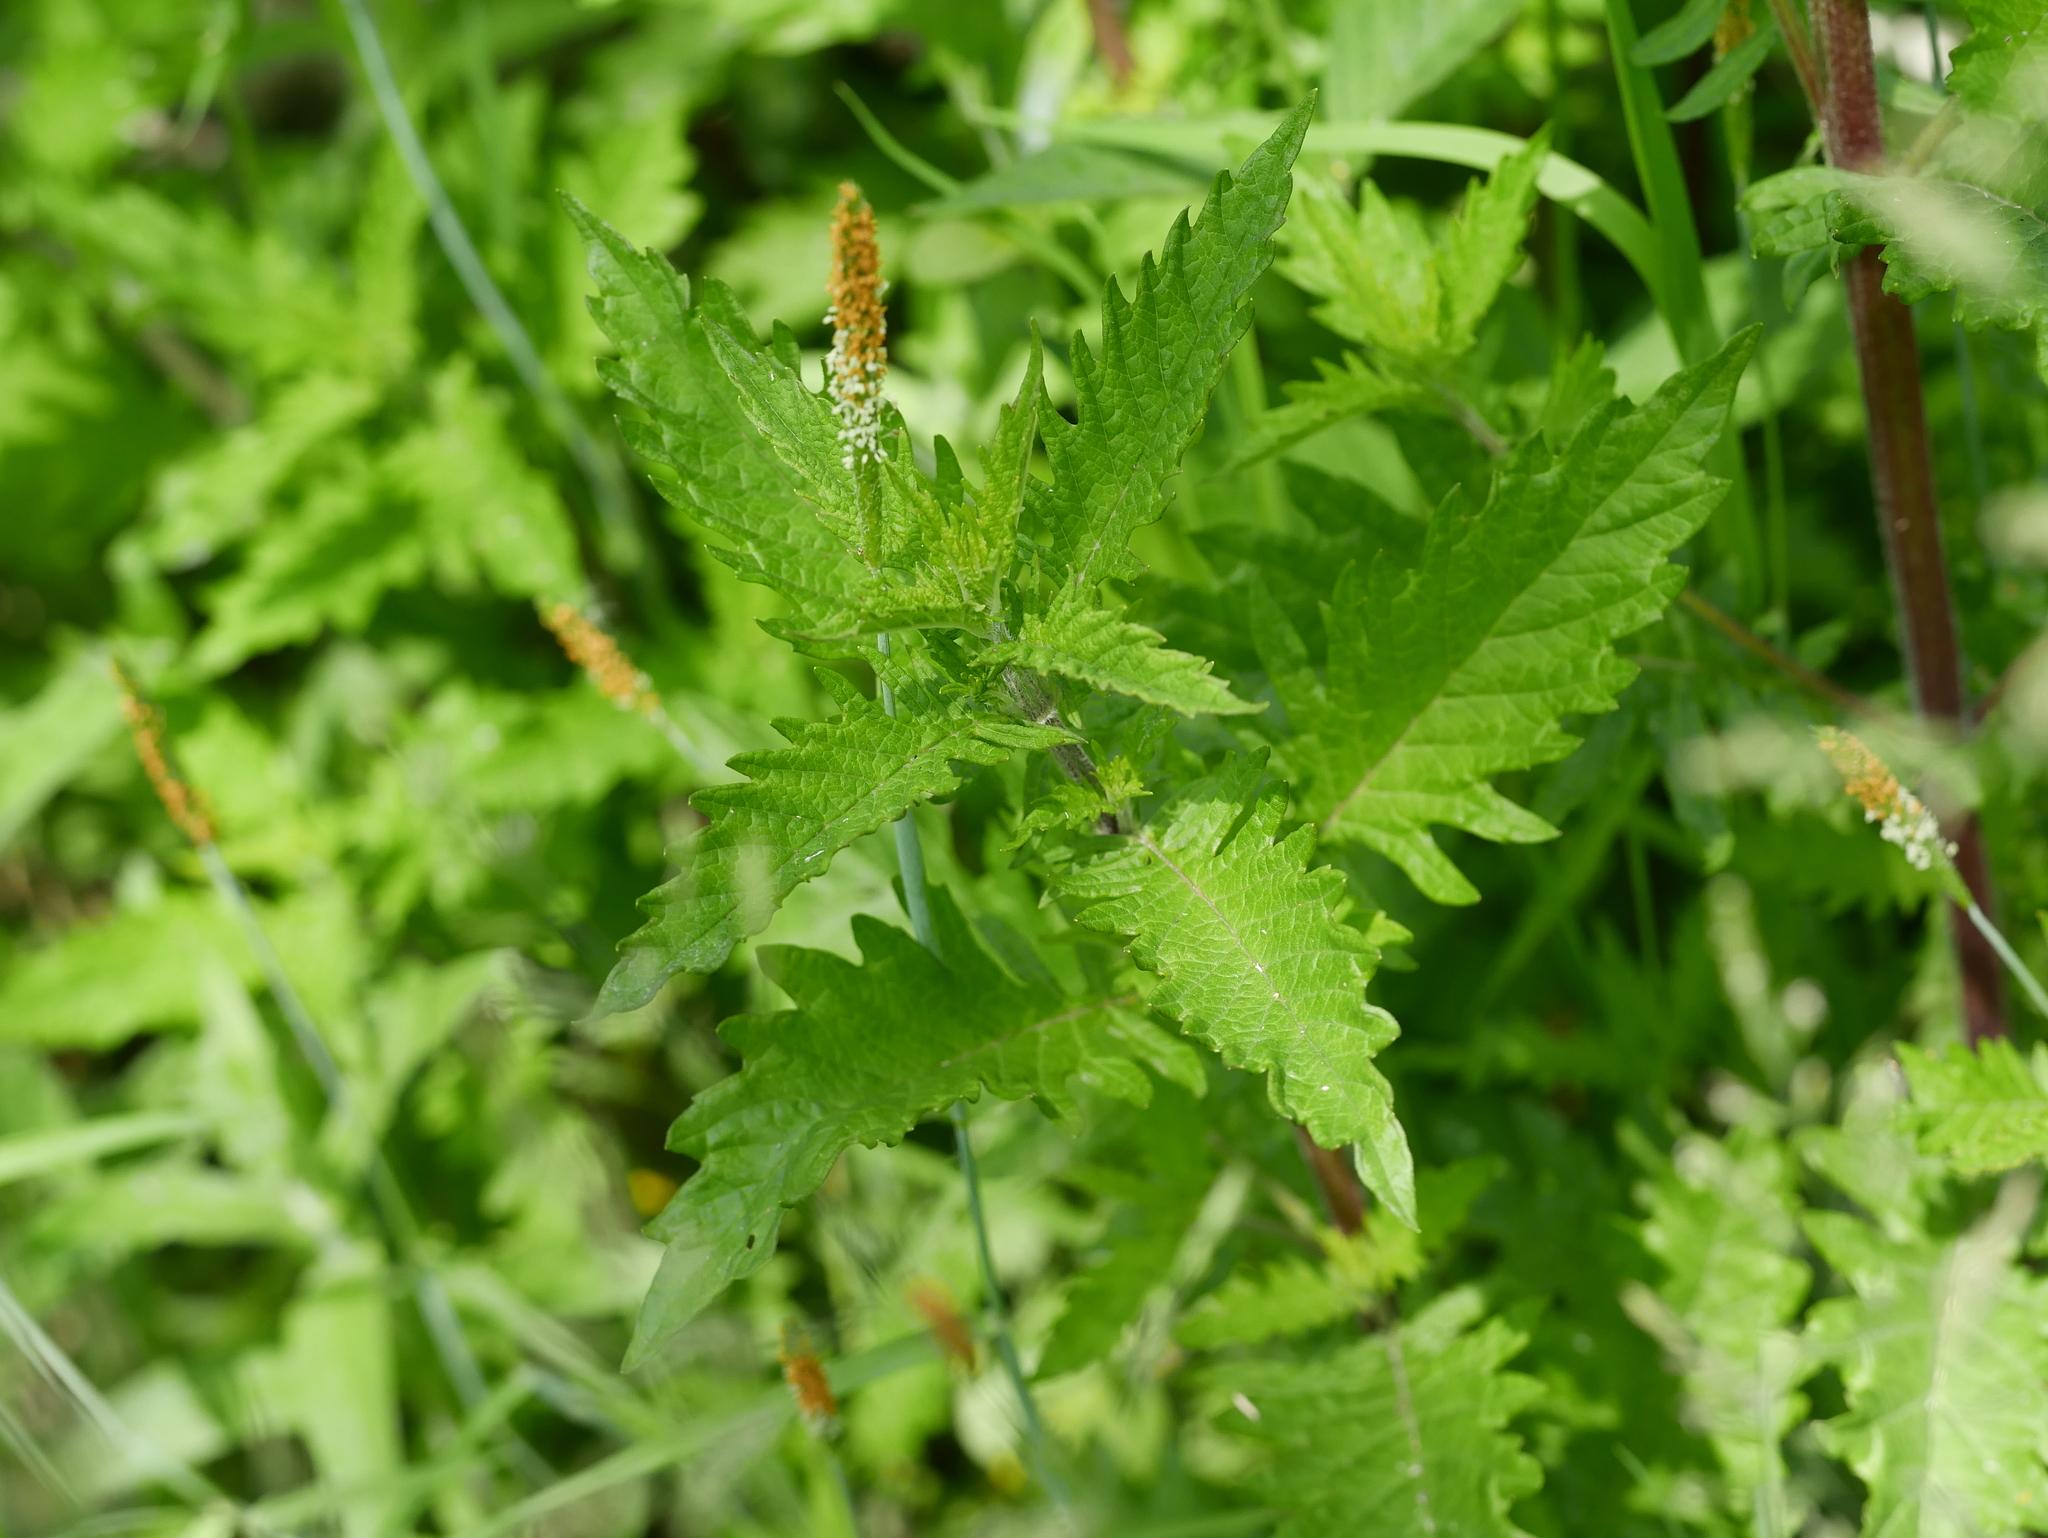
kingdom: Plantae
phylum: Tracheophyta
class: Magnoliopsida
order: Lamiales
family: Lamiaceae
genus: Lycopus
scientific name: Lycopus europaeus
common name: European bugleweed
